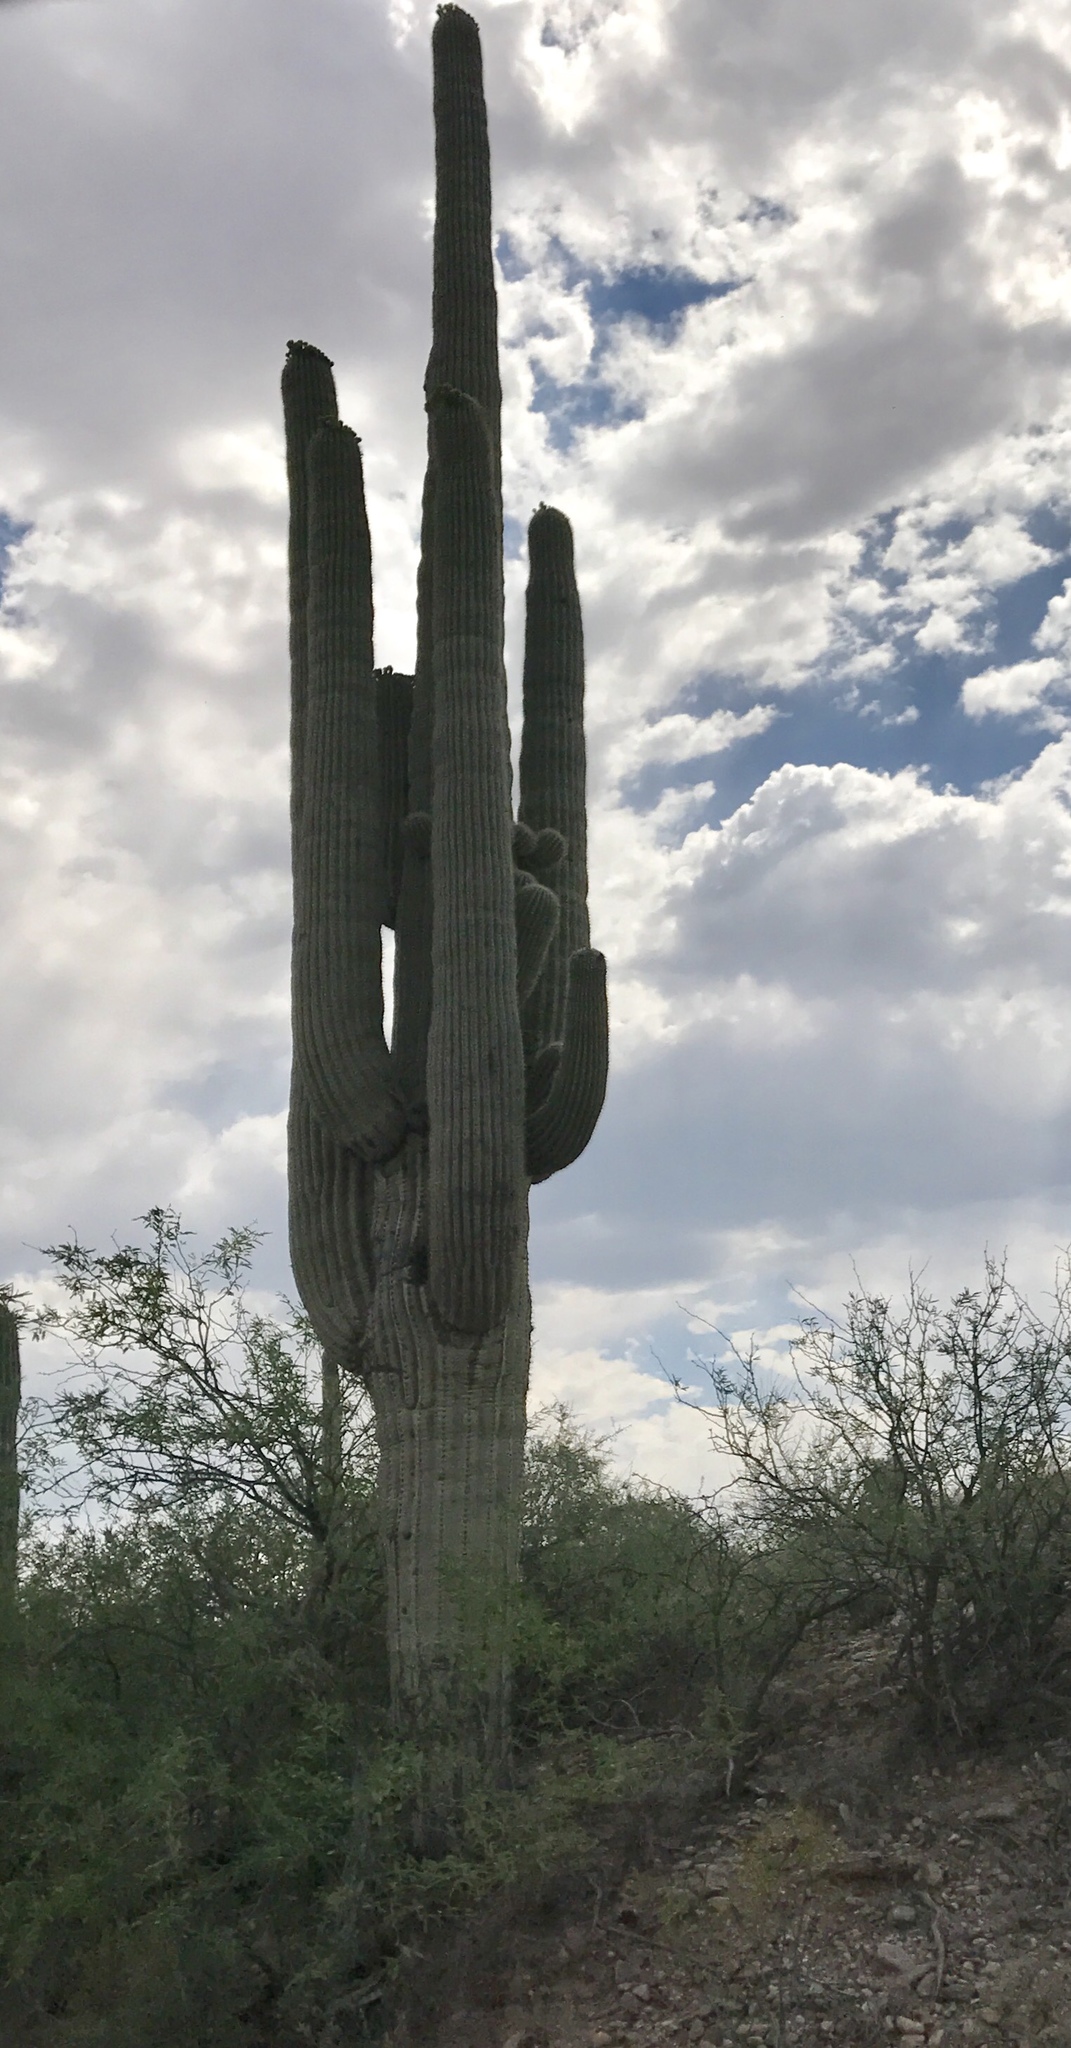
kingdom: Plantae
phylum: Tracheophyta
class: Magnoliopsida
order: Caryophyllales
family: Cactaceae
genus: Carnegiea
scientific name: Carnegiea gigantea
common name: Saguaro
